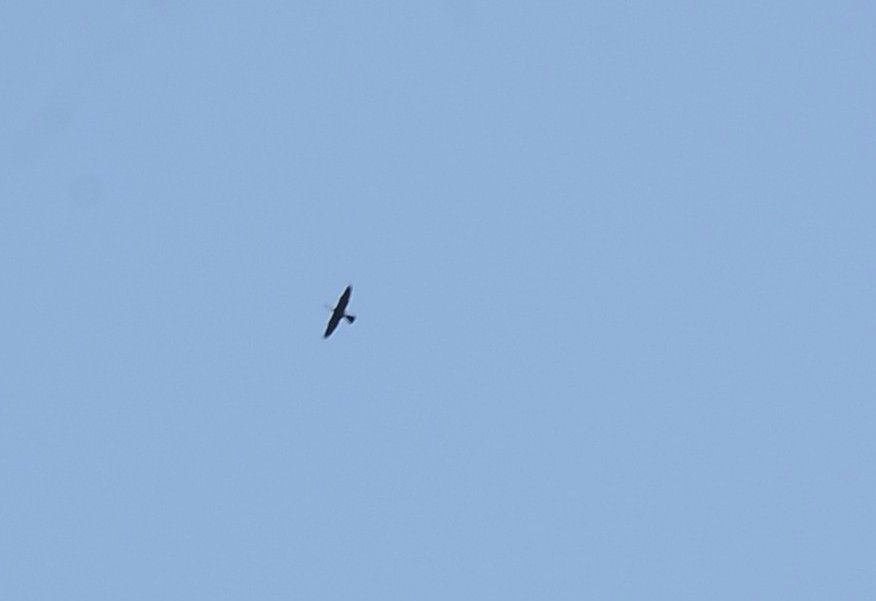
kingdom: Animalia
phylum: Chordata
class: Aves
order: Suliformes
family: Anhingidae
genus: Anhinga
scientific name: Anhinga melanogaster
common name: Oriental darter
